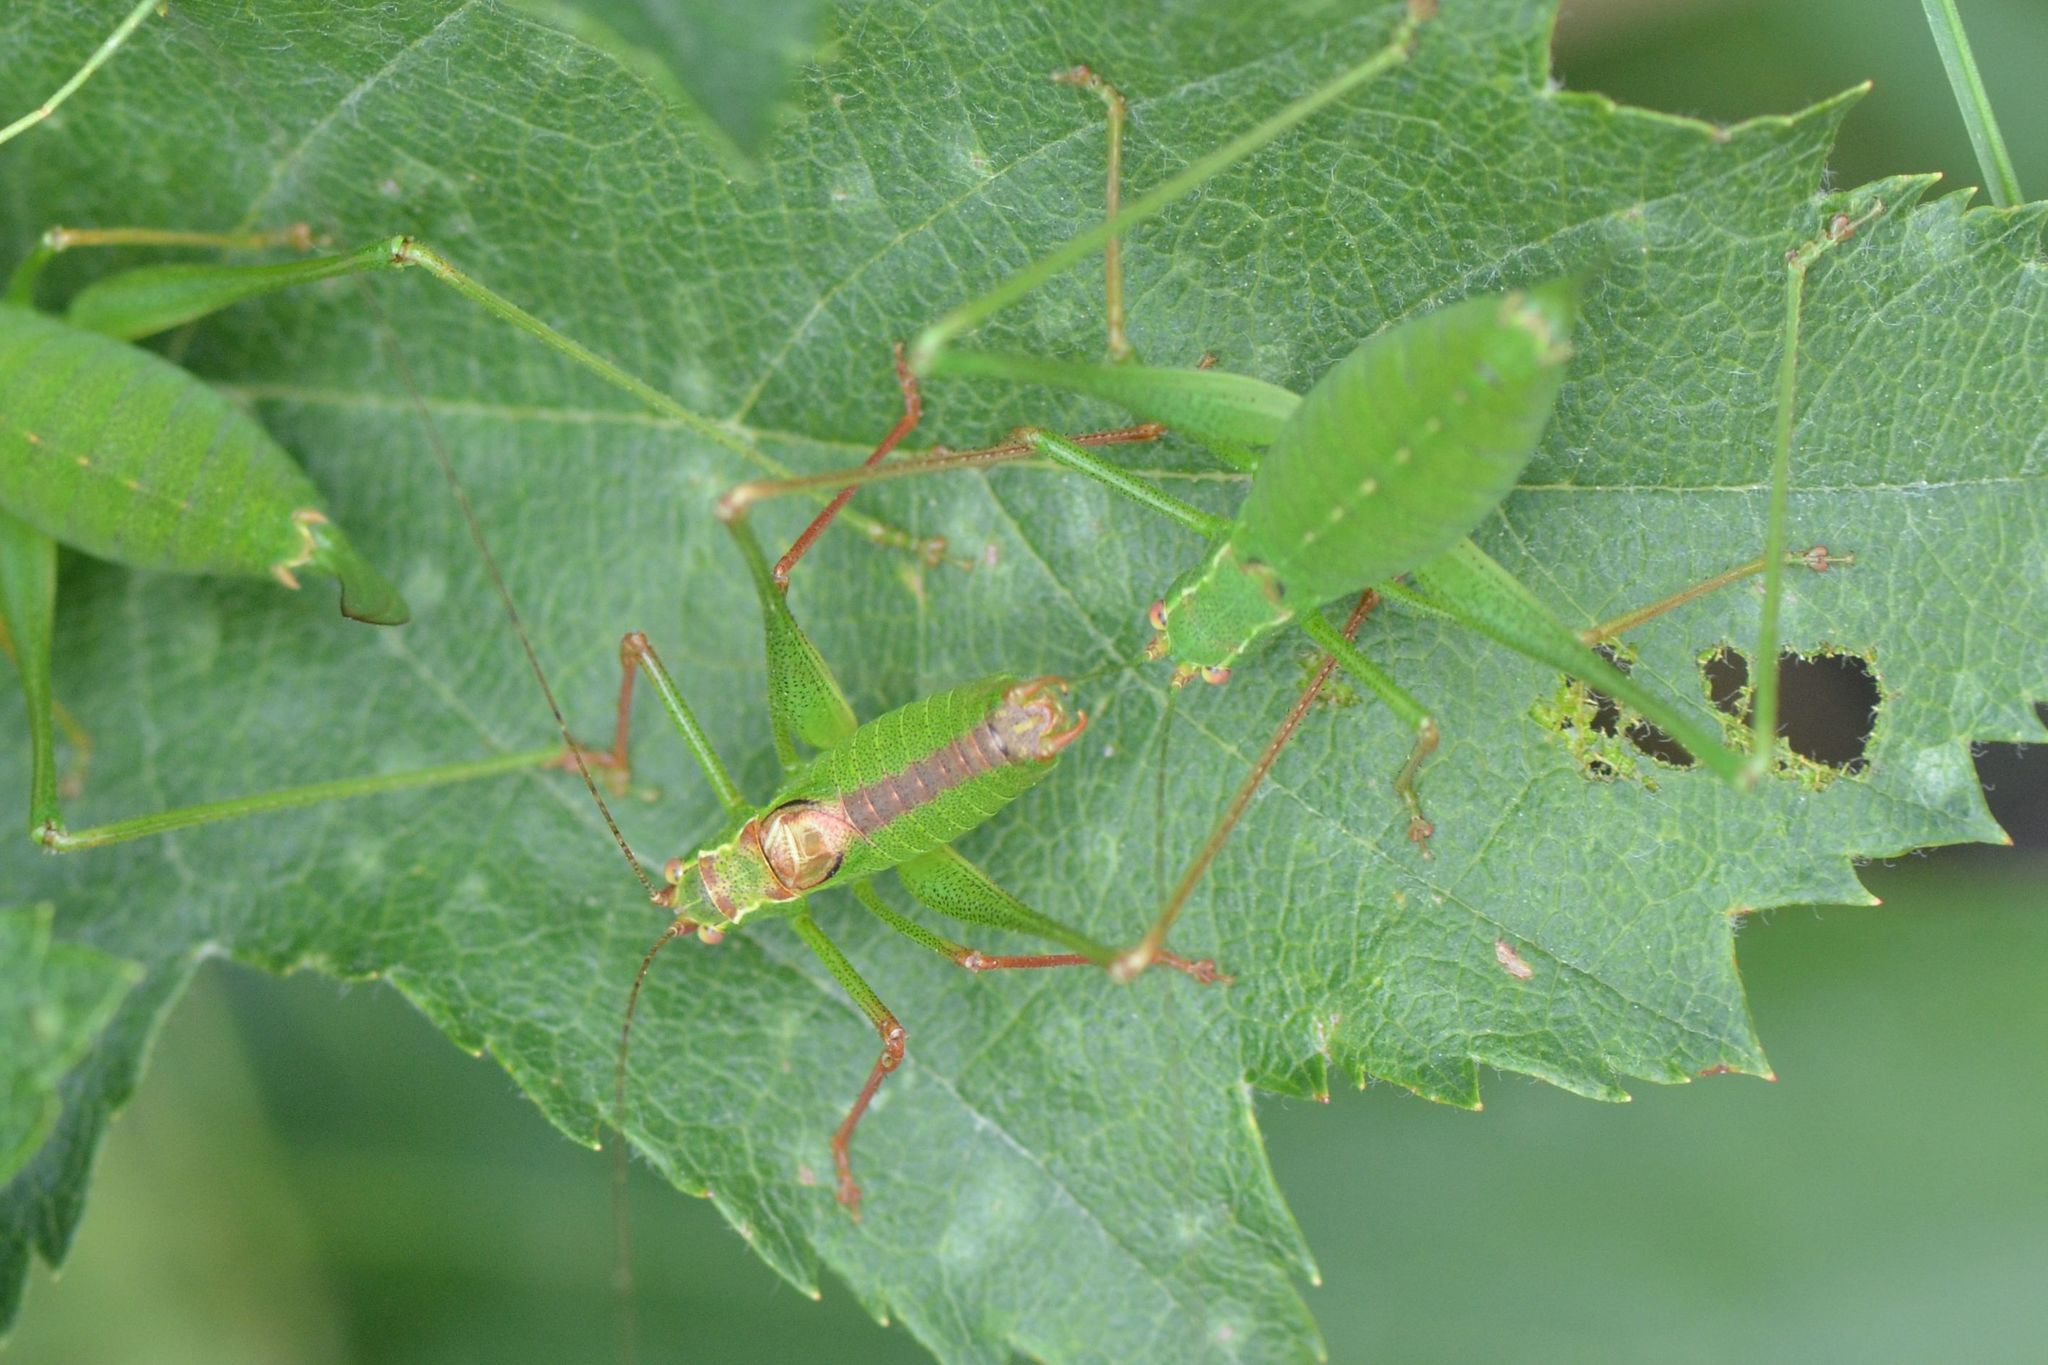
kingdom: Animalia
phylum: Arthropoda
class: Insecta
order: Orthoptera
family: Tettigoniidae
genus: Leptophyes
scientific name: Leptophyes punctatissima
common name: Speckled bush-cricket
